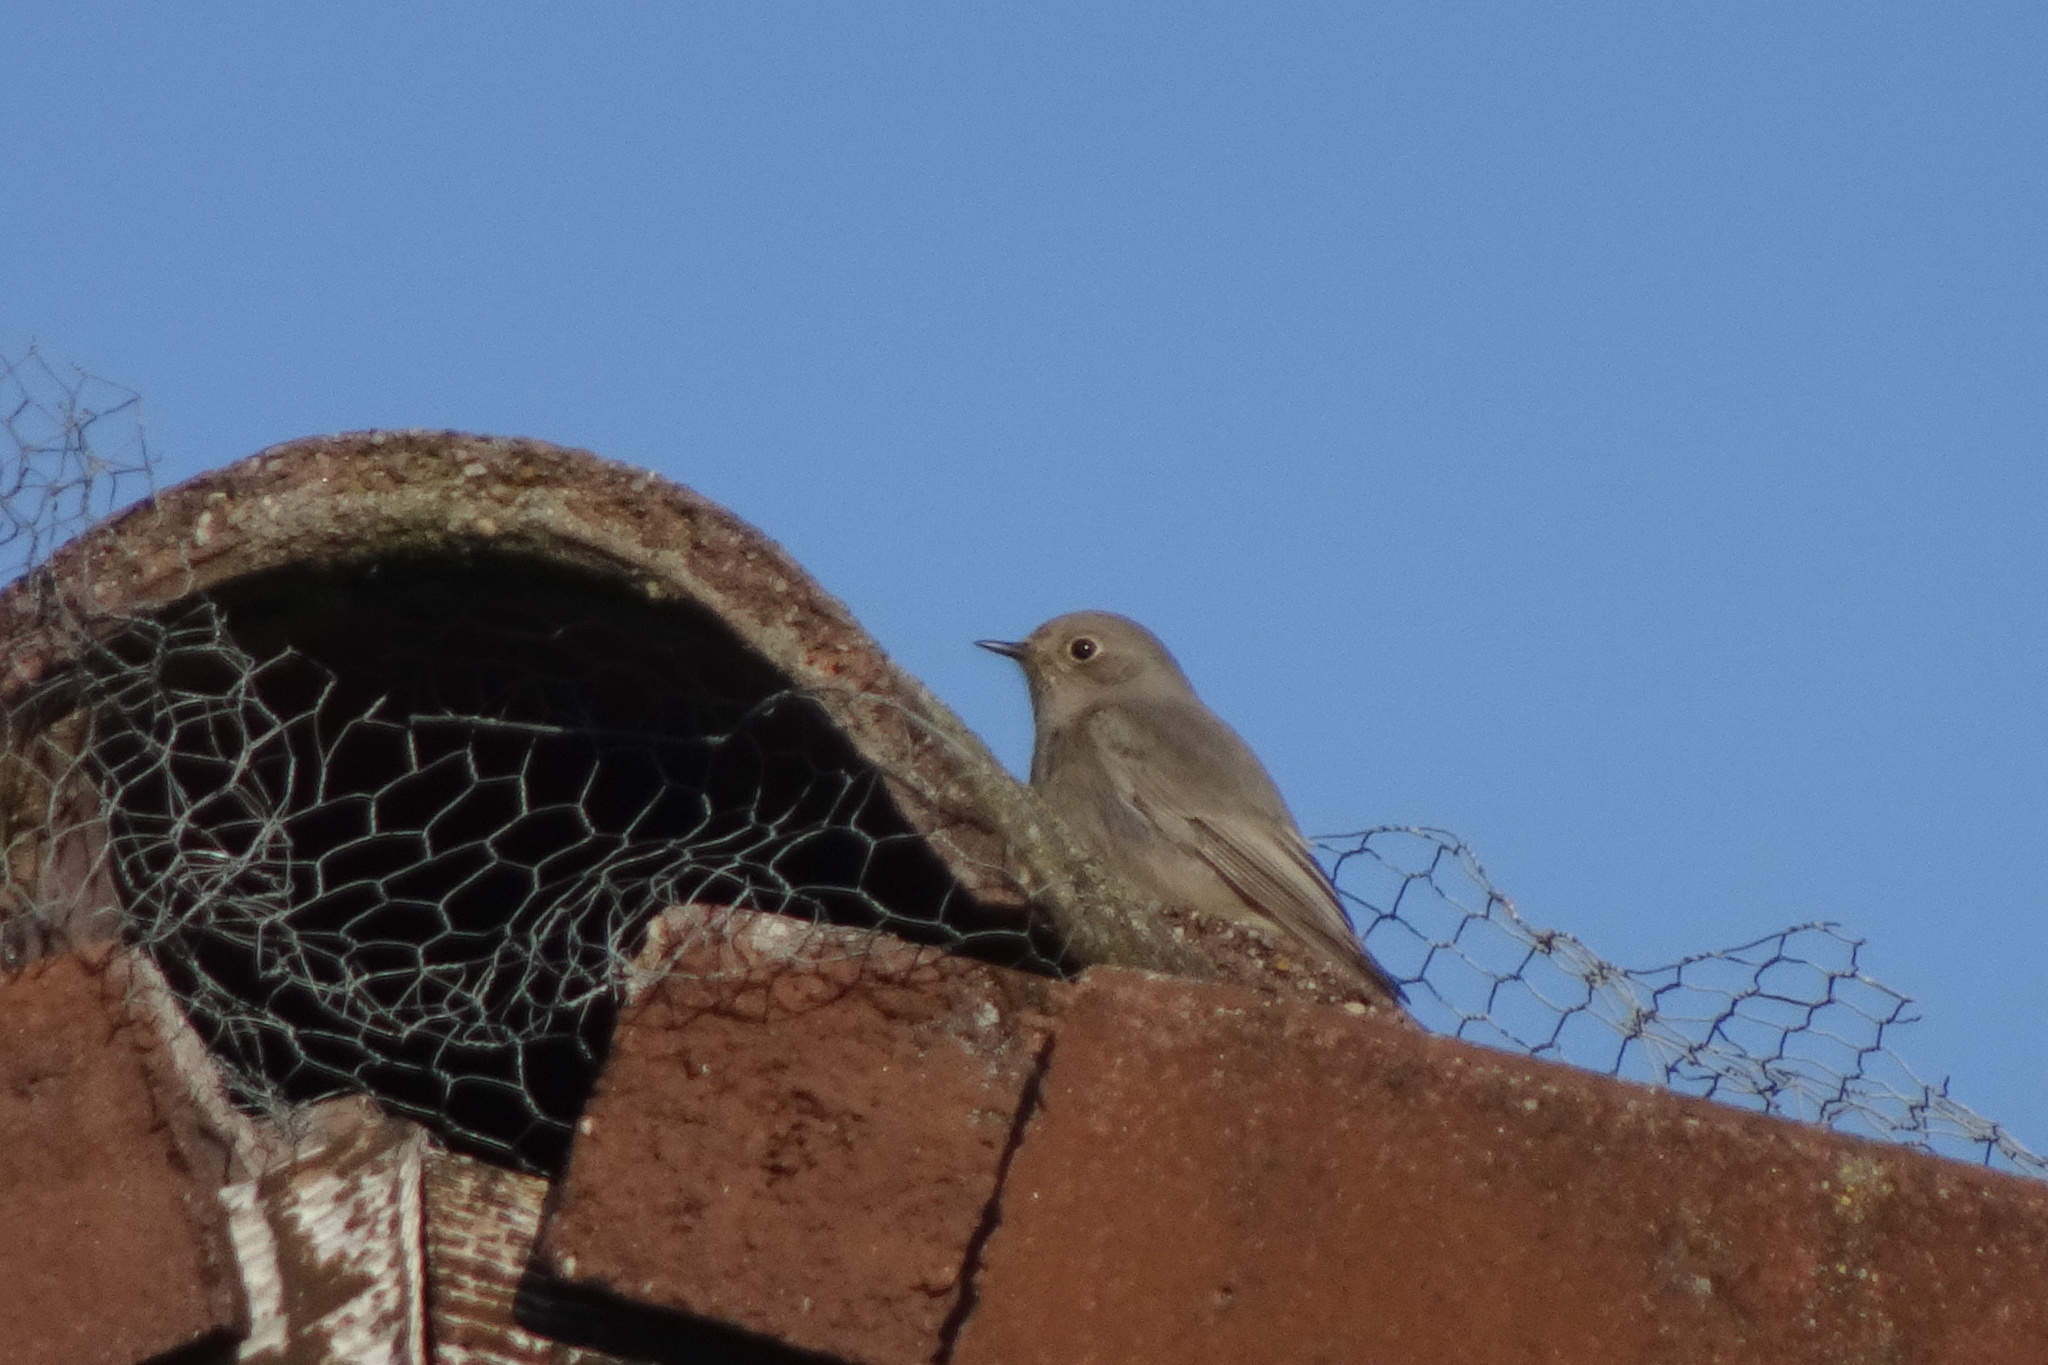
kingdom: Animalia
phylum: Chordata
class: Aves
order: Passeriformes
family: Muscicapidae
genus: Phoenicurus
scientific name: Phoenicurus ochruros
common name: Black redstart
